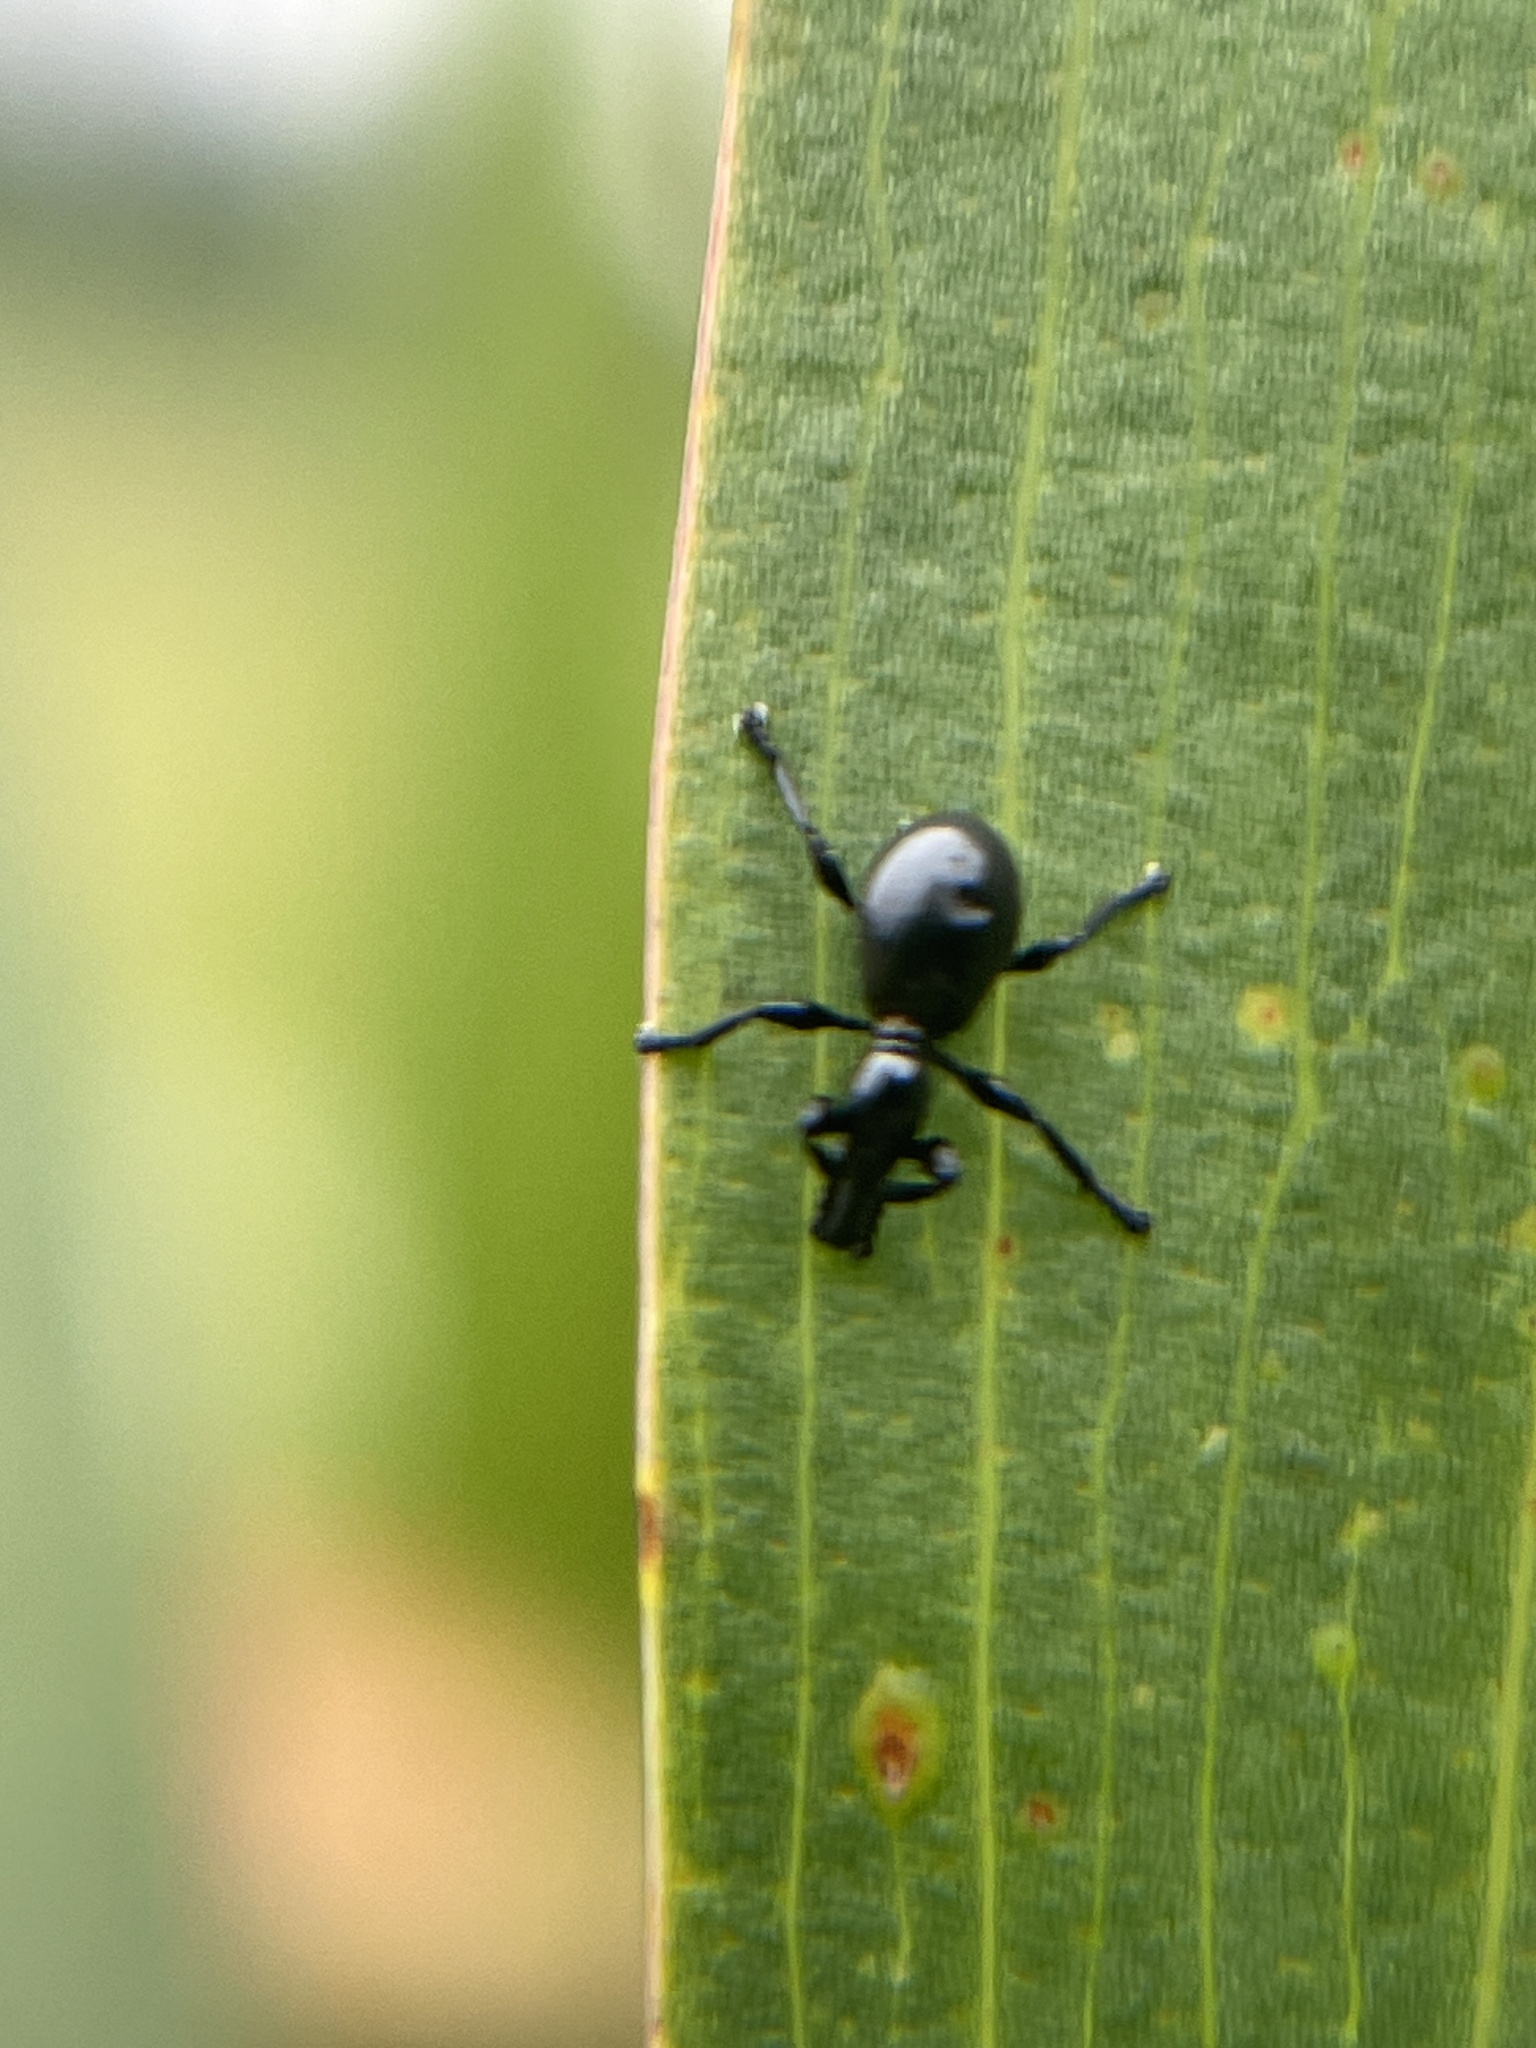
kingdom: Animalia
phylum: Arthropoda
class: Insecta
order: Coleoptera
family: Brentidae
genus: Rhynolaccus
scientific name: Rhynolaccus formicarius
